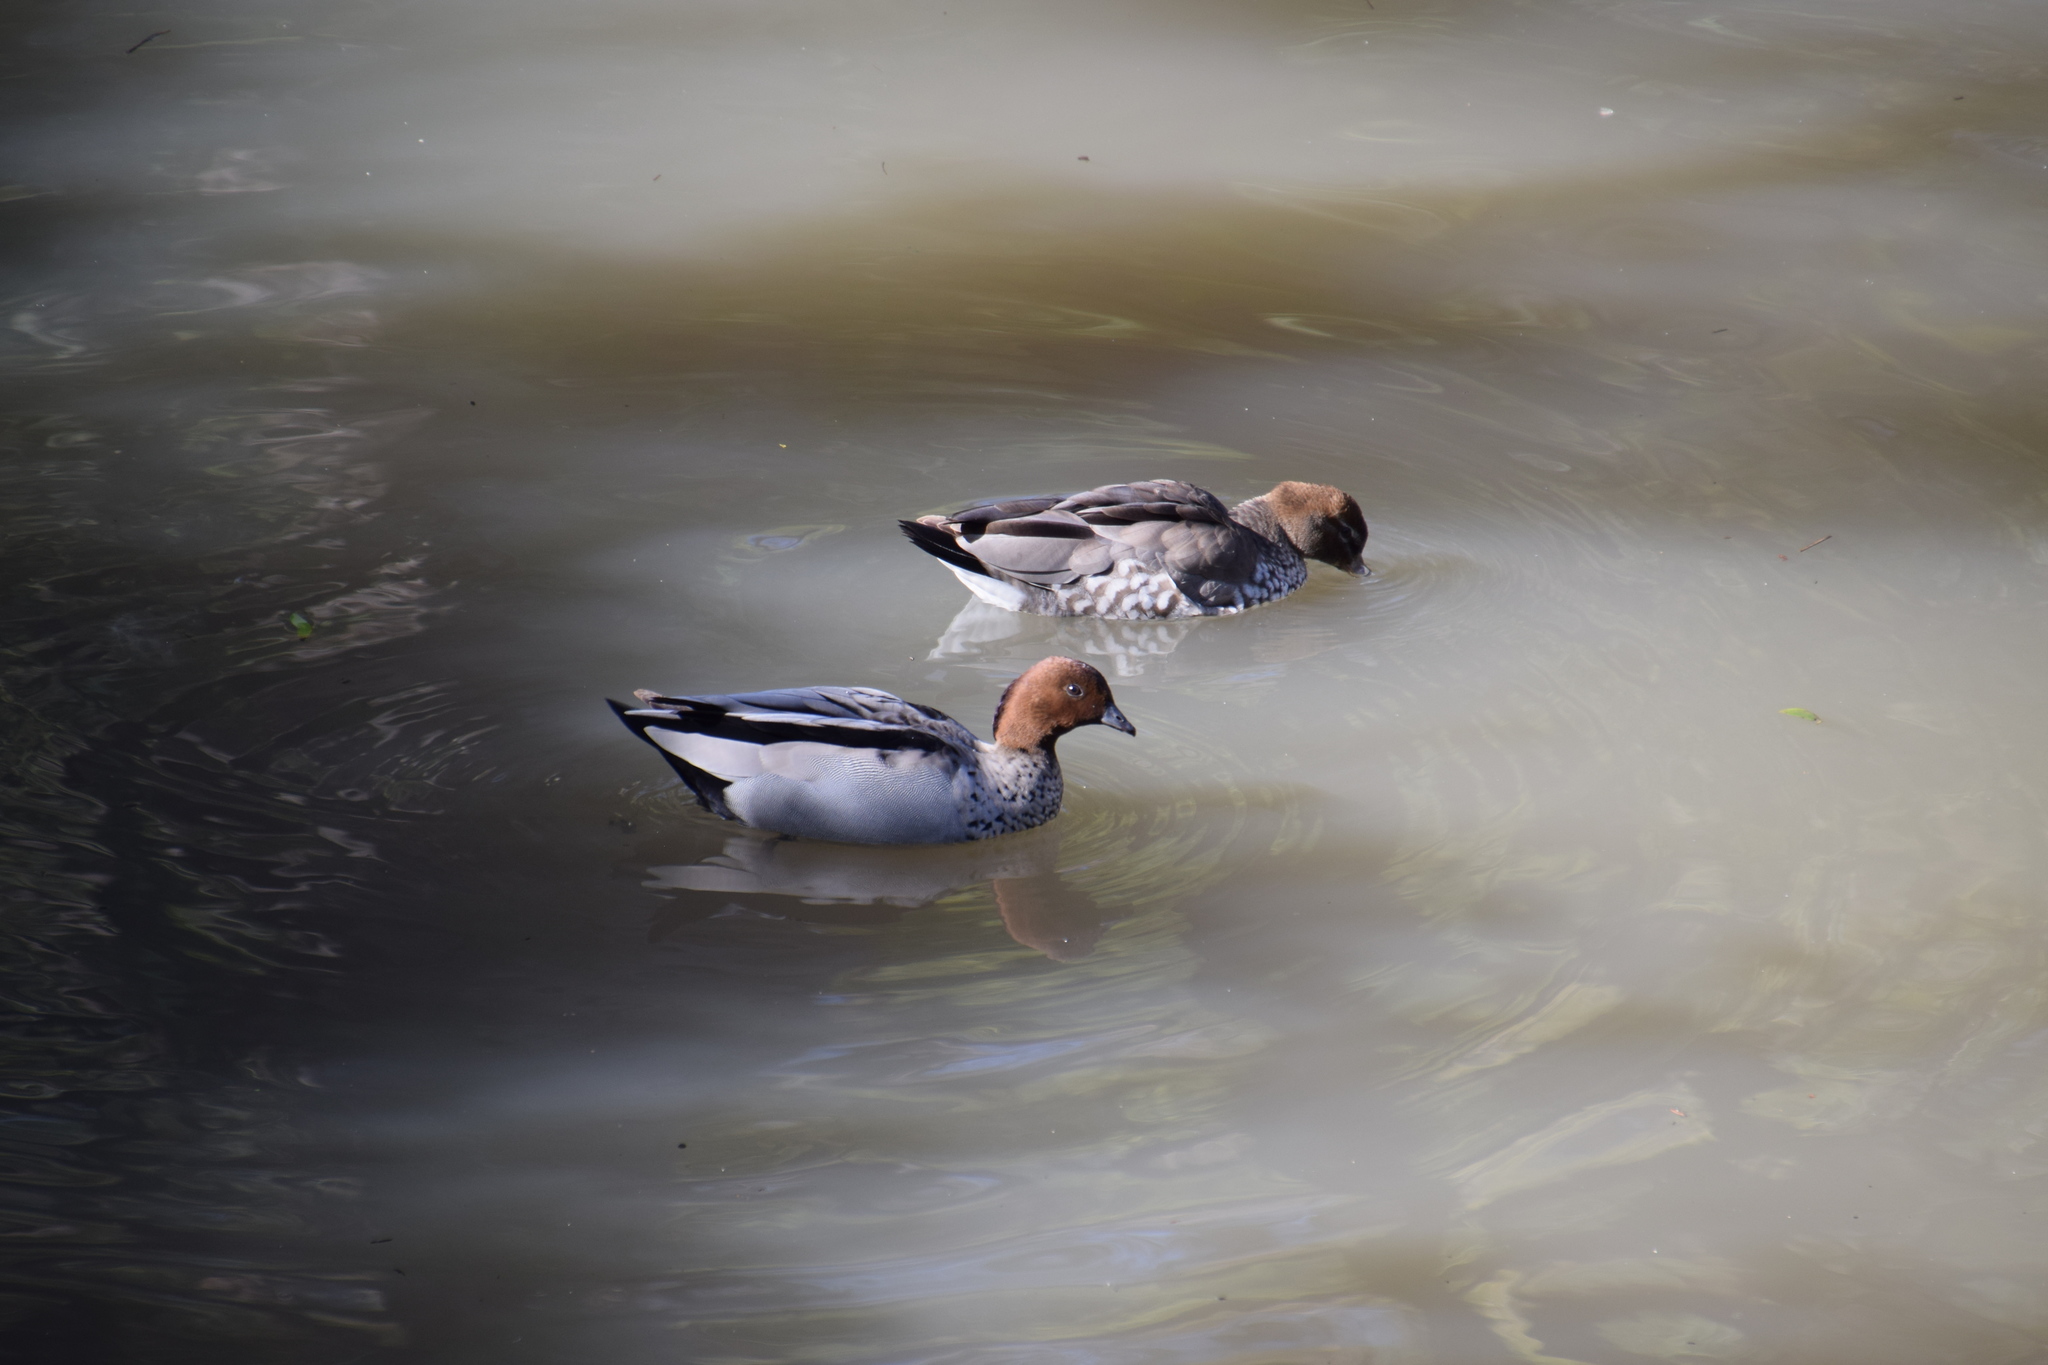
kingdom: Animalia
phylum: Chordata
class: Aves
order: Anseriformes
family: Anatidae
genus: Chenonetta
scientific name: Chenonetta jubata
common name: Maned duck
